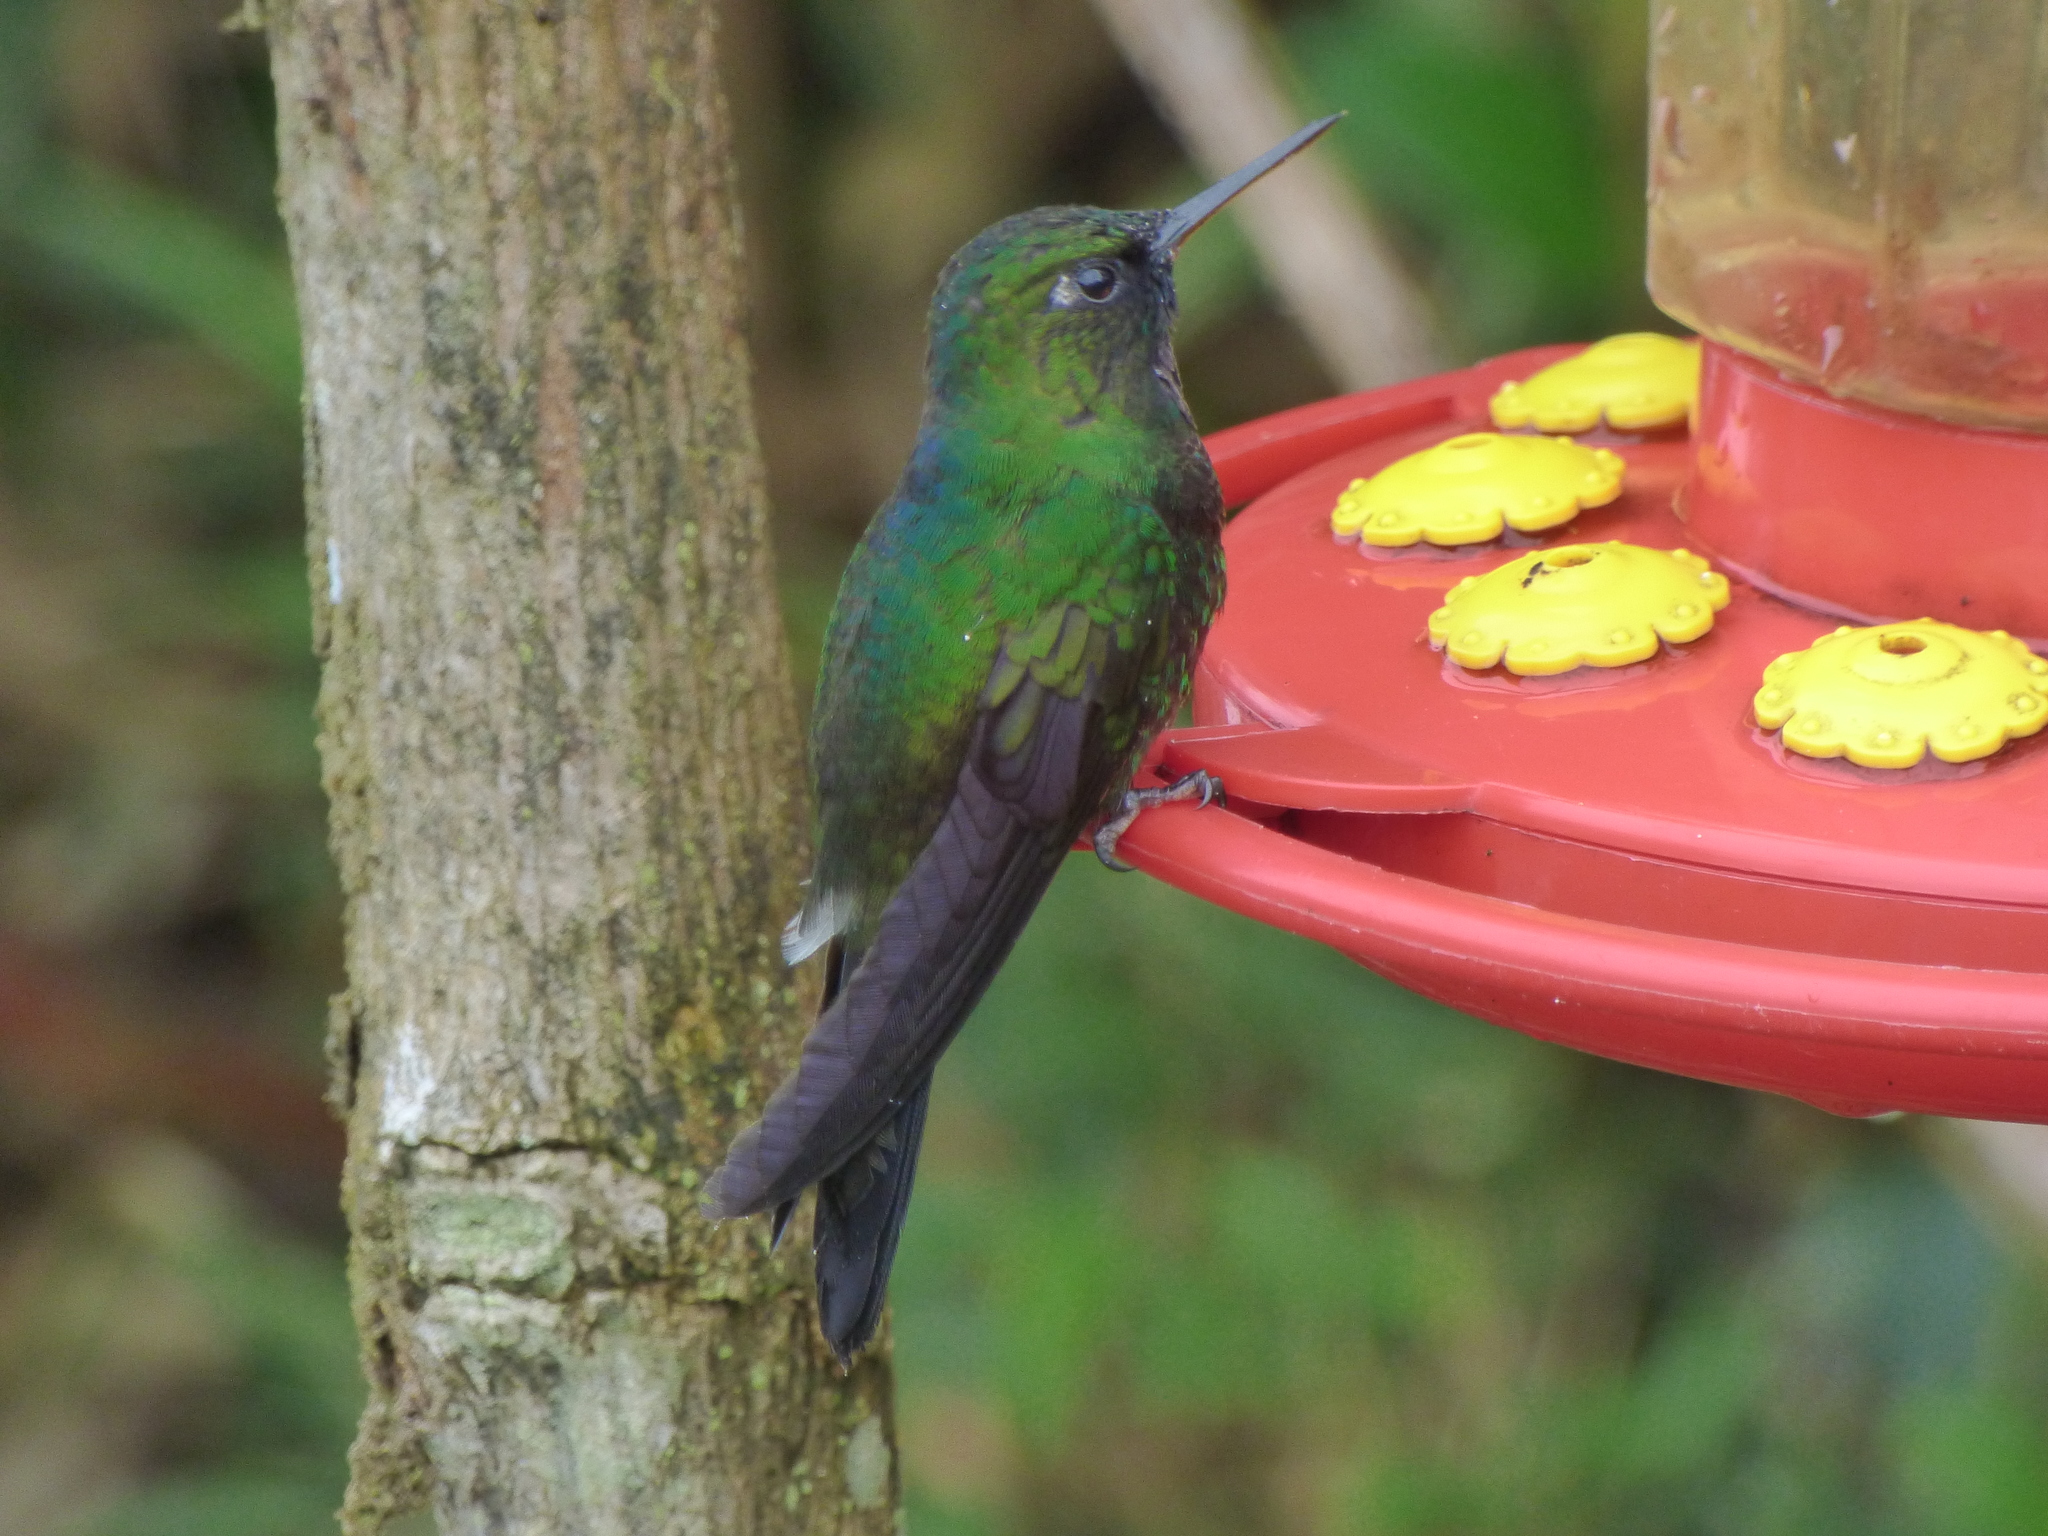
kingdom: Animalia
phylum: Chordata
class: Aves
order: Apodiformes
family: Trochilidae
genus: Heliangelus
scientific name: Heliangelus exortis
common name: Tourmaline sunangel
